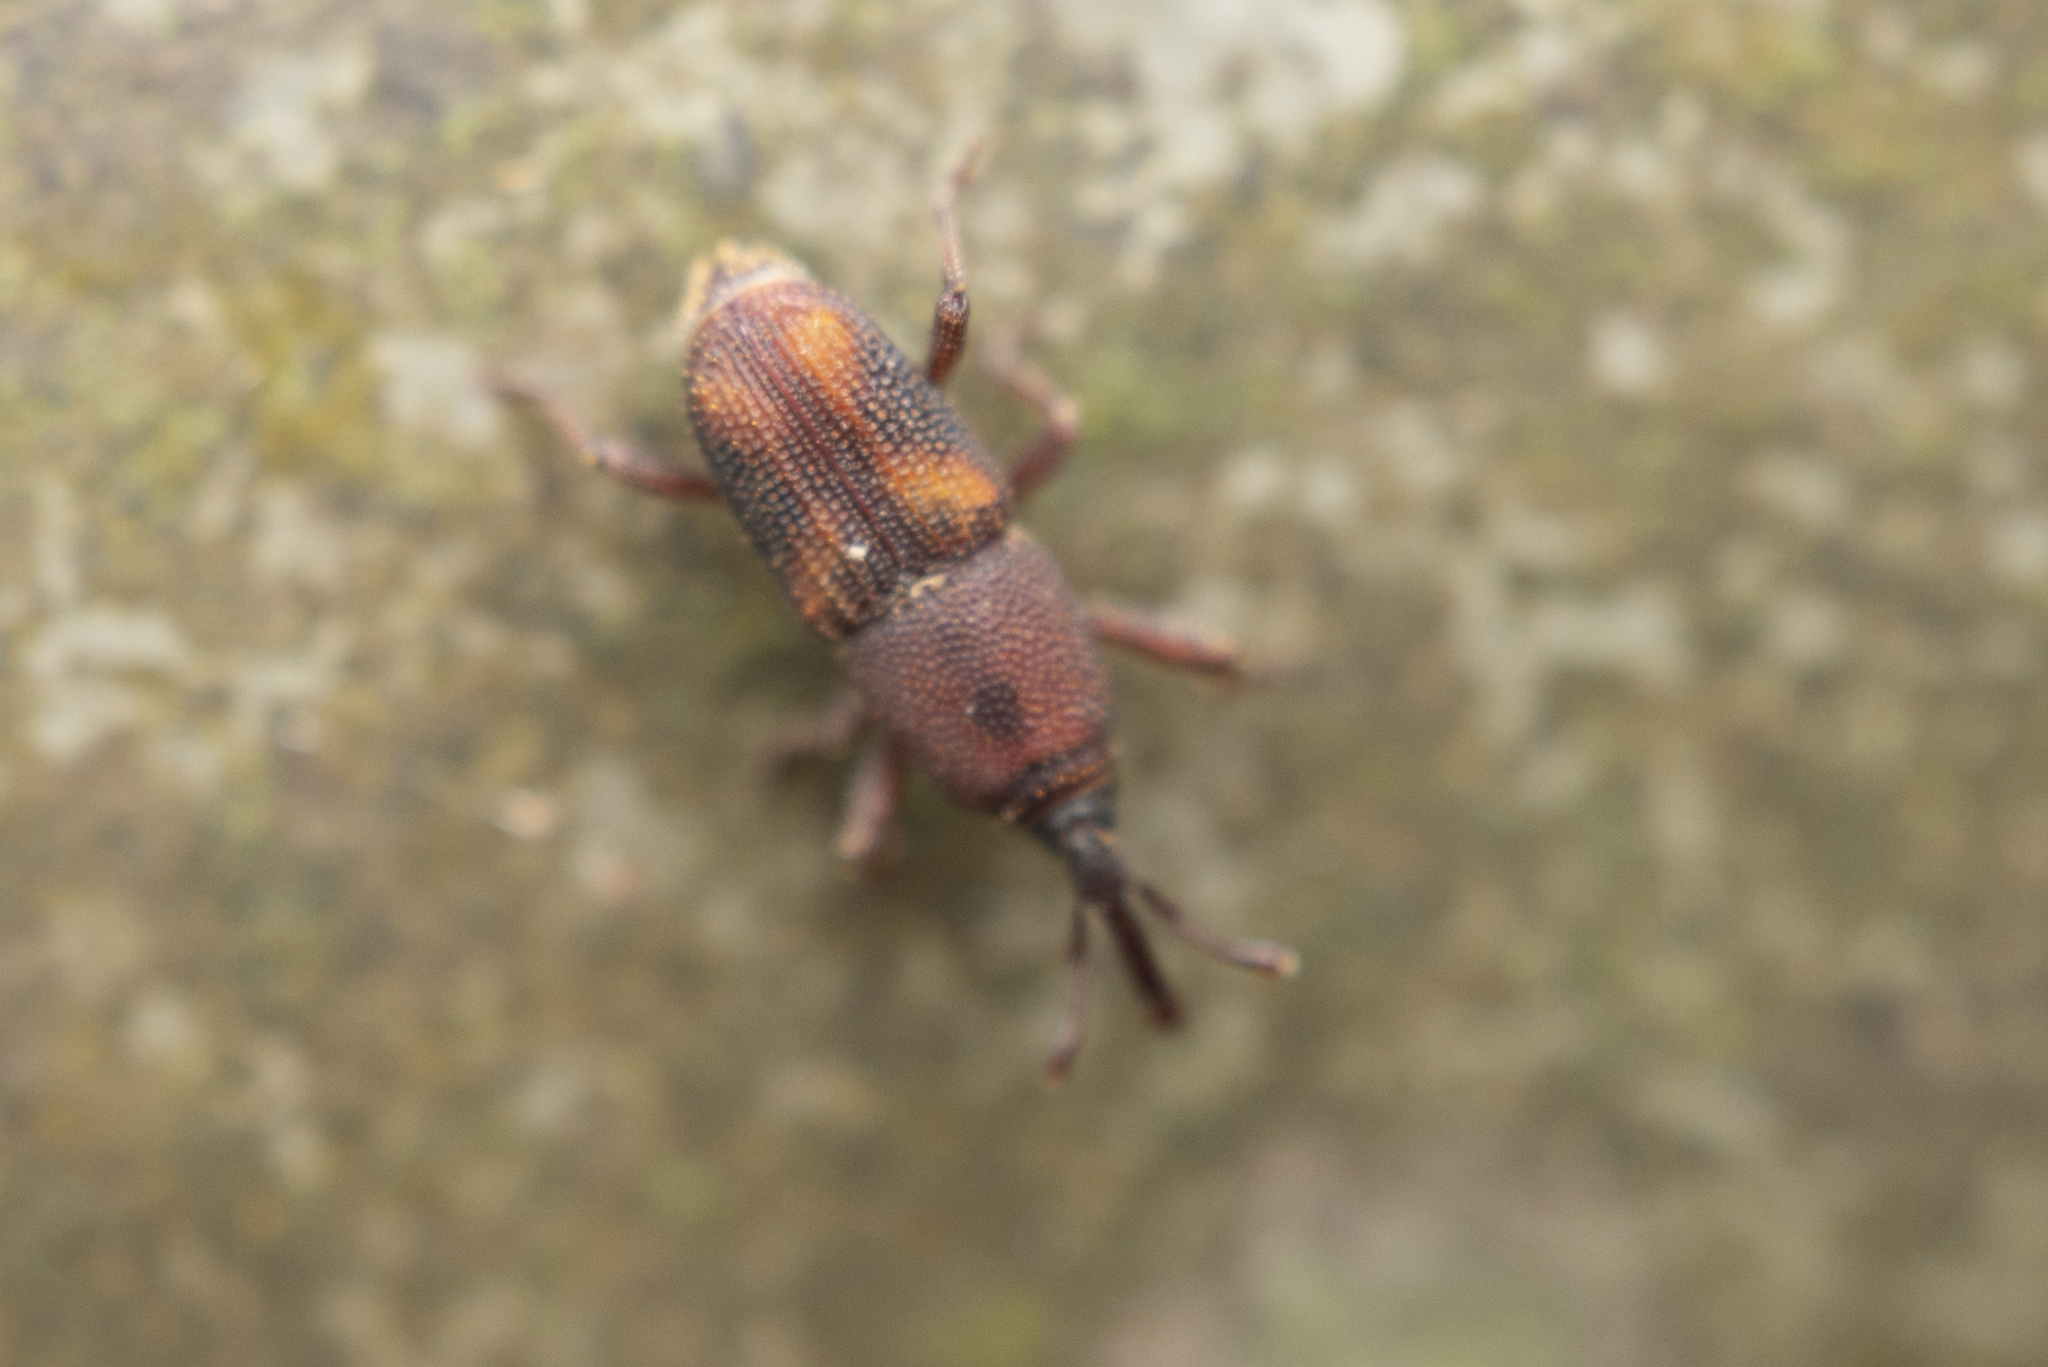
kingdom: Animalia
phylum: Arthropoda
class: Insecta
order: Coleoptera
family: Dryophthoridae
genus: Sitophilus
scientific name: Sitophilus oryzae
